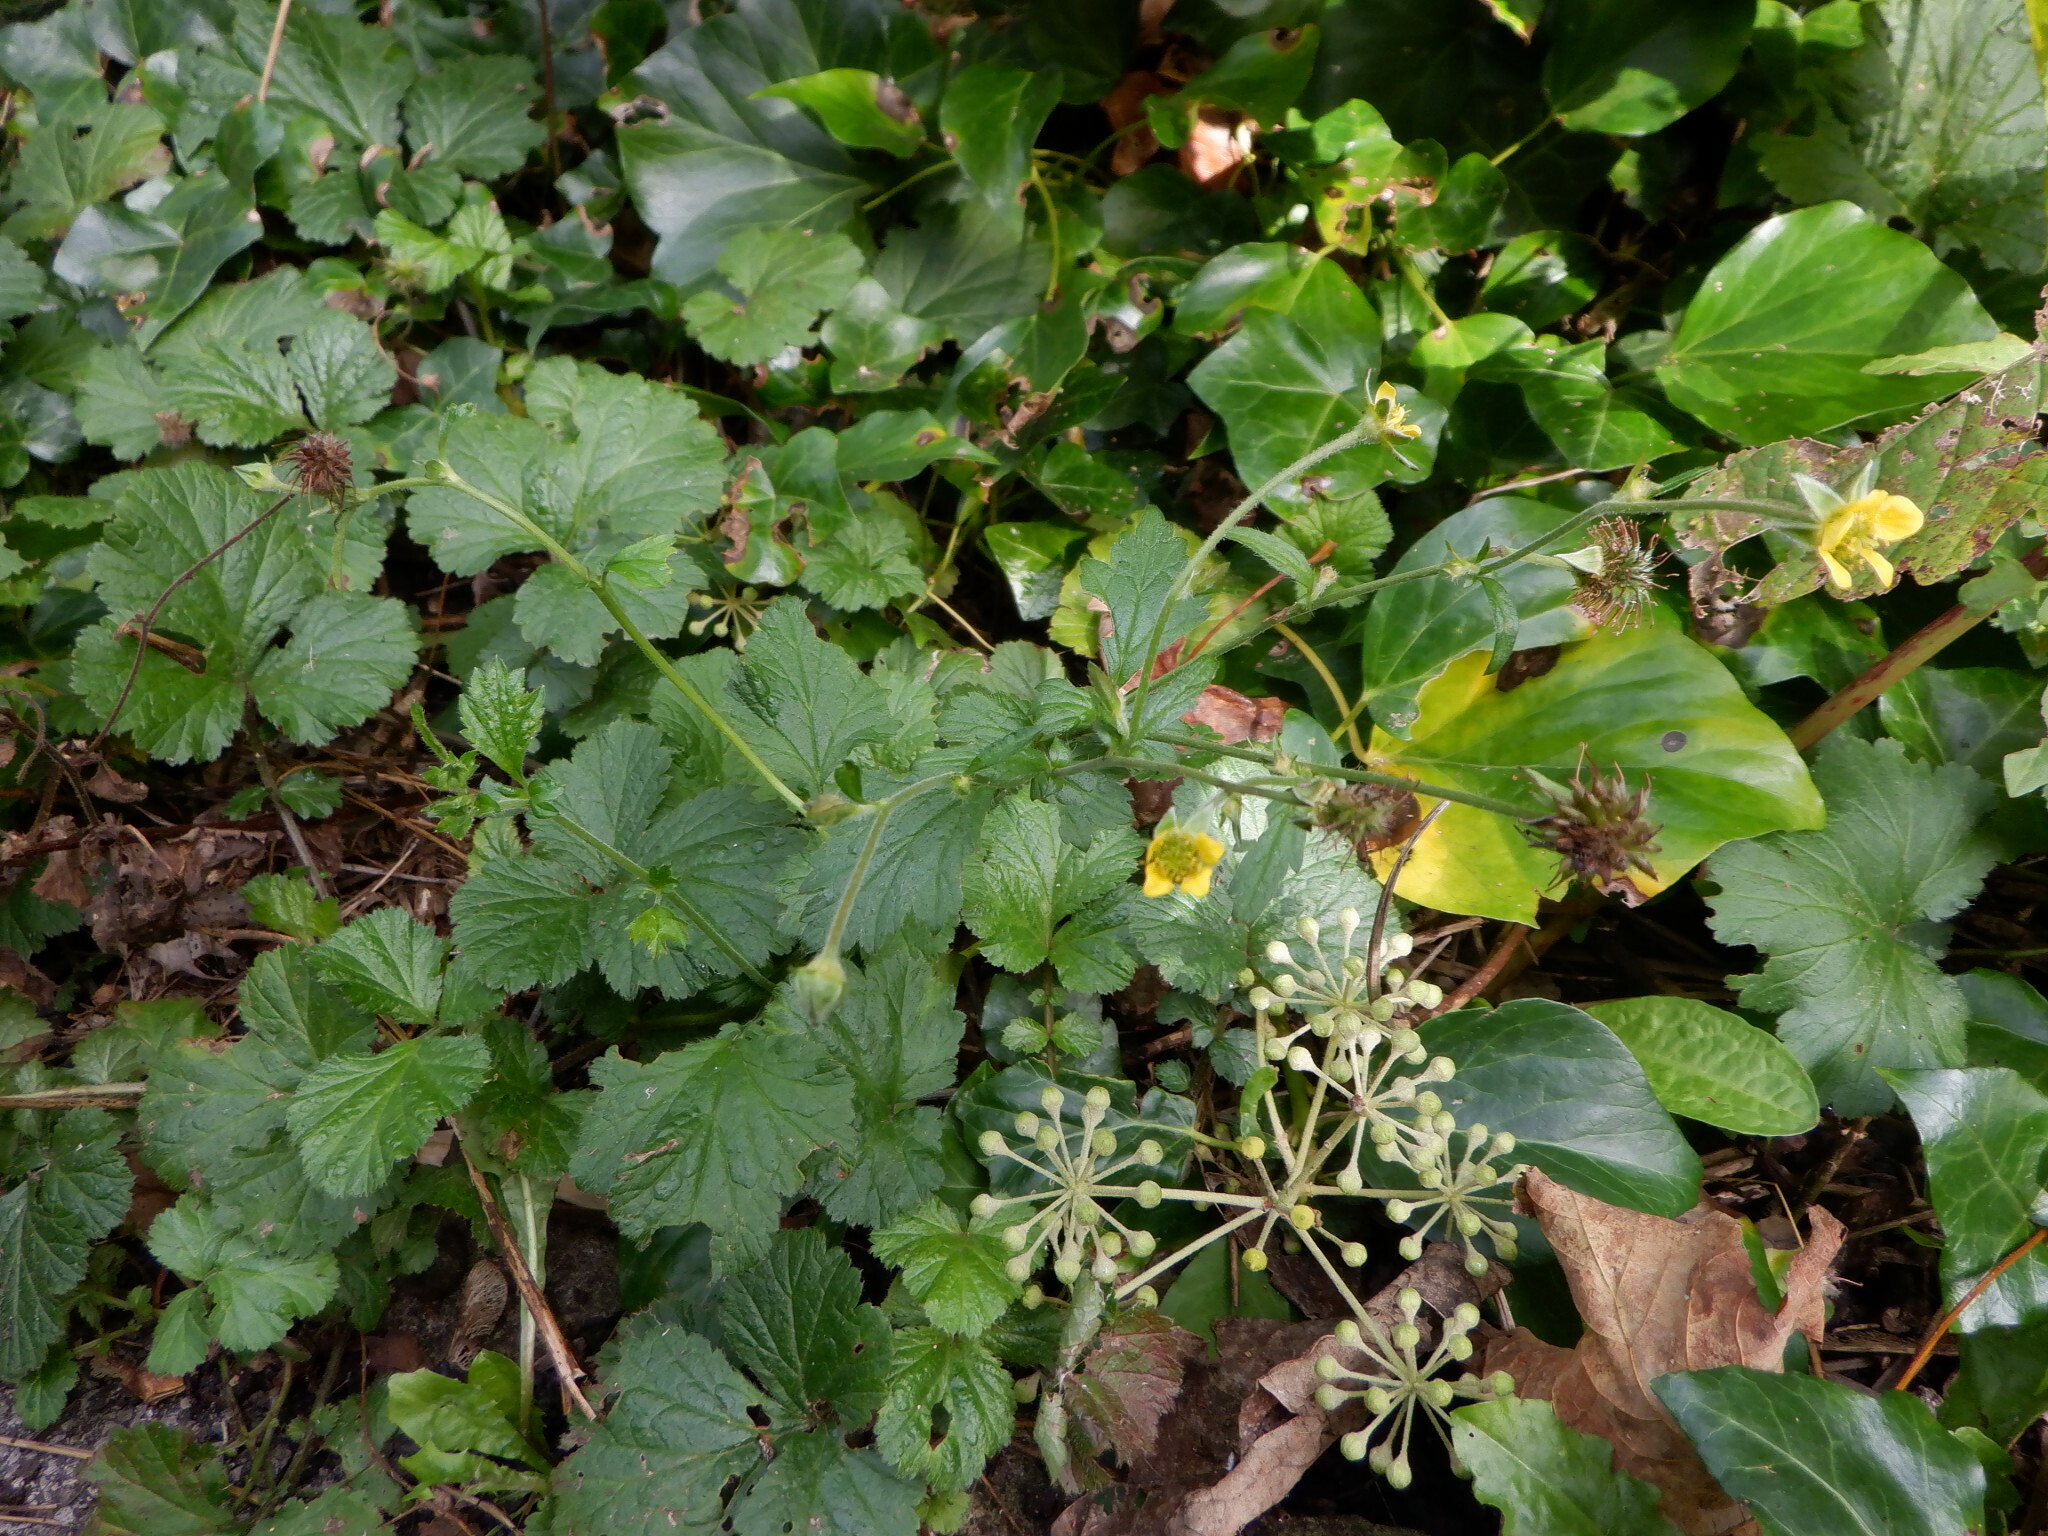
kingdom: Plantae
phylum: Tracheophyta
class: Magnoliopsida
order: Rosales
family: Rosaceae
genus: Geum
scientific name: Geum urbanum
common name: Wood avens
